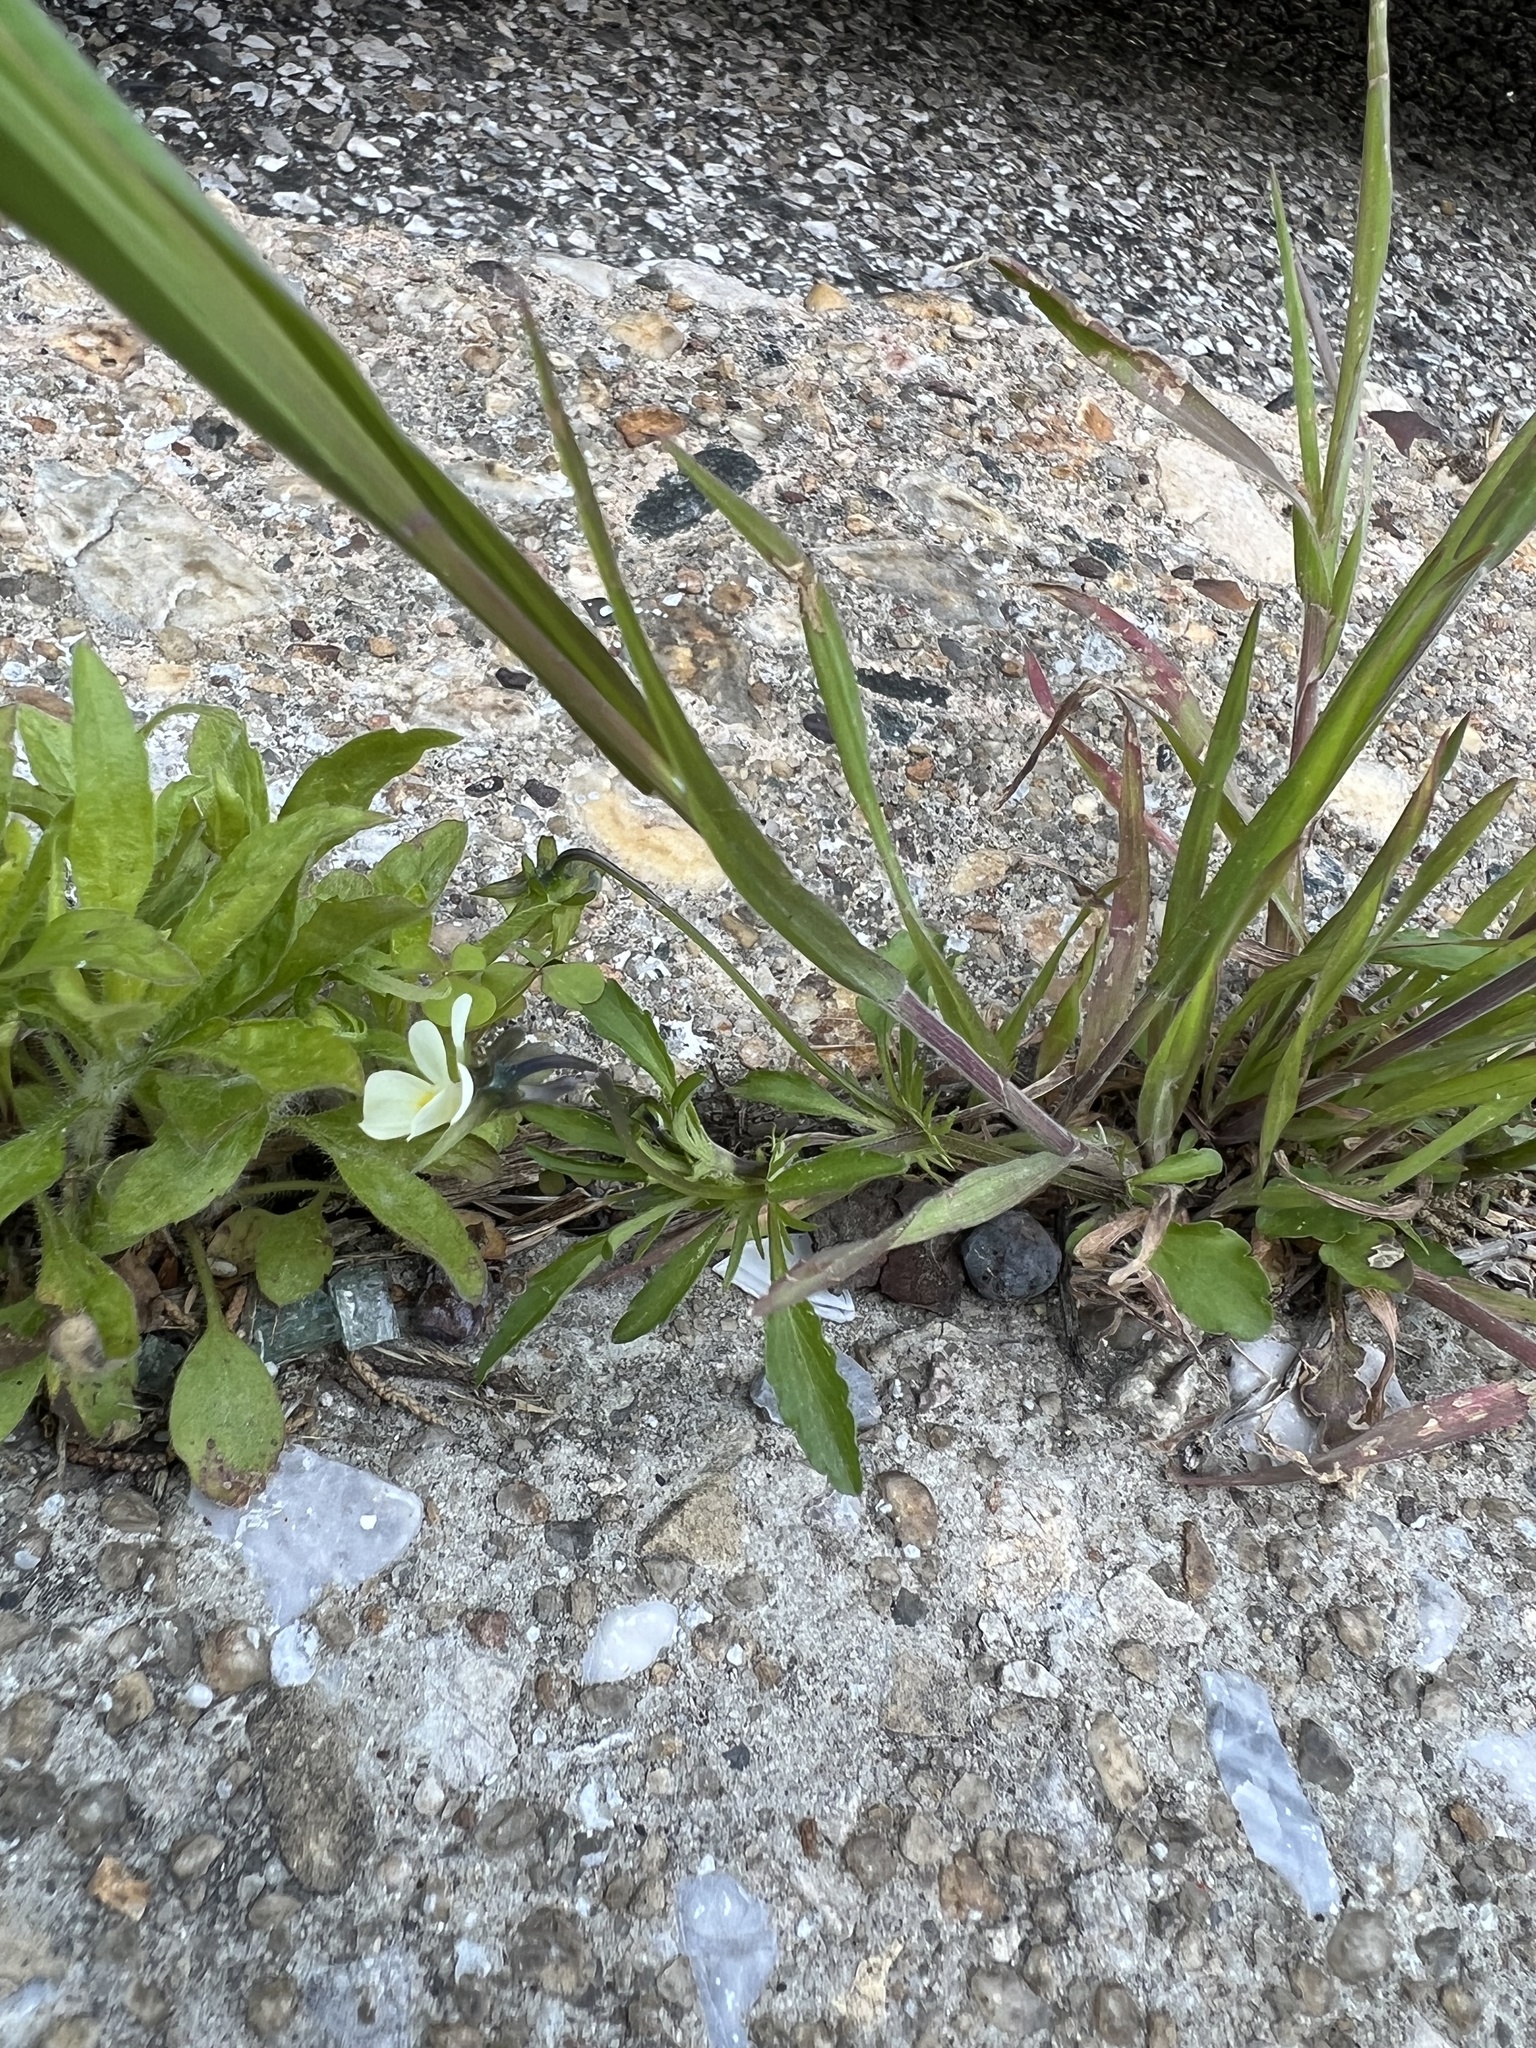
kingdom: Plantae
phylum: Tracheophyta
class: Magnoliopsida
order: Malpighiales
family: Violaceae
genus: Viola
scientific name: Viola arvensis
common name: Field pansy
